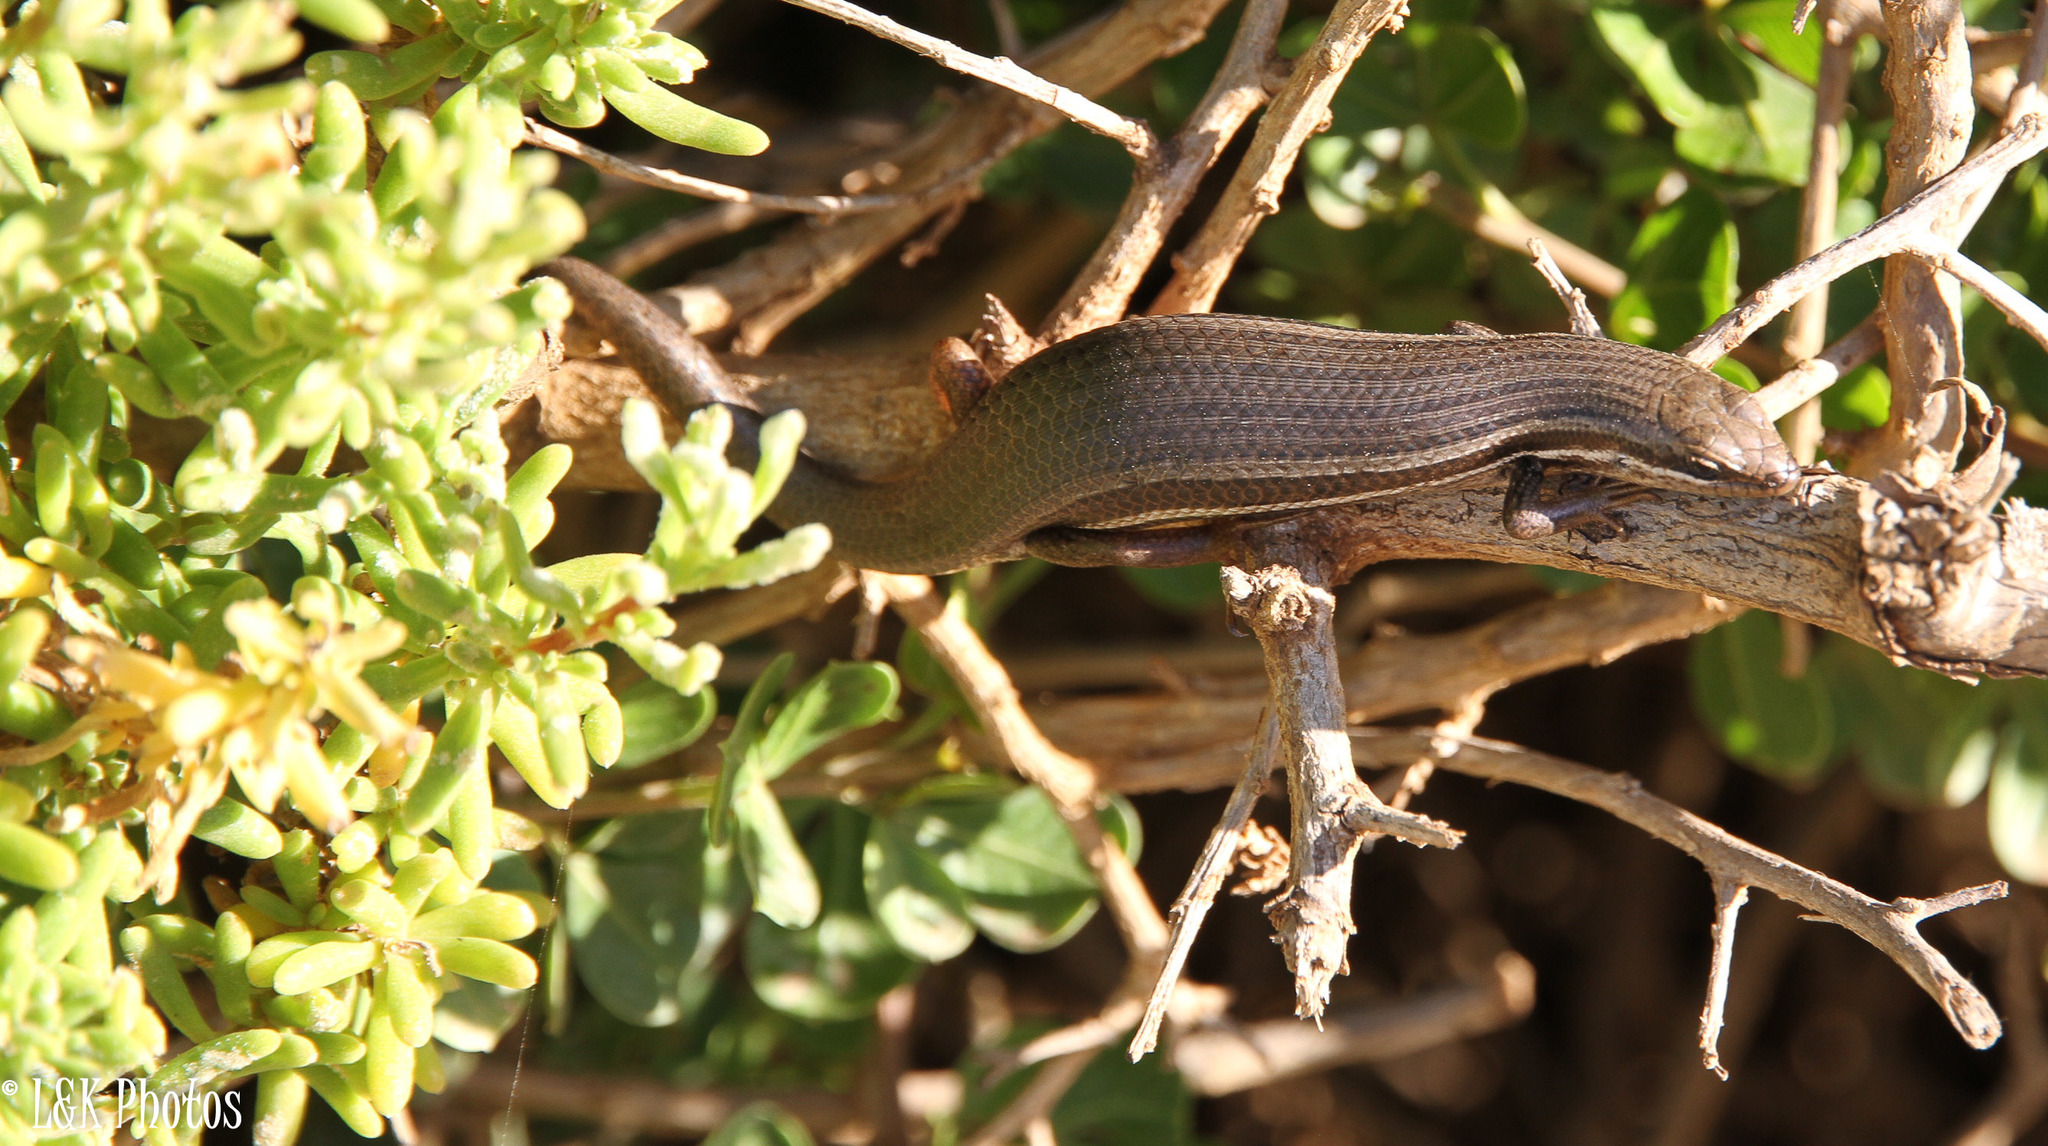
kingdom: Animalia
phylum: Chordata
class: Squamata
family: Scincidae
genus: Trachylepis
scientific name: Trachylepis homalocephala
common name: Red-sided skink
